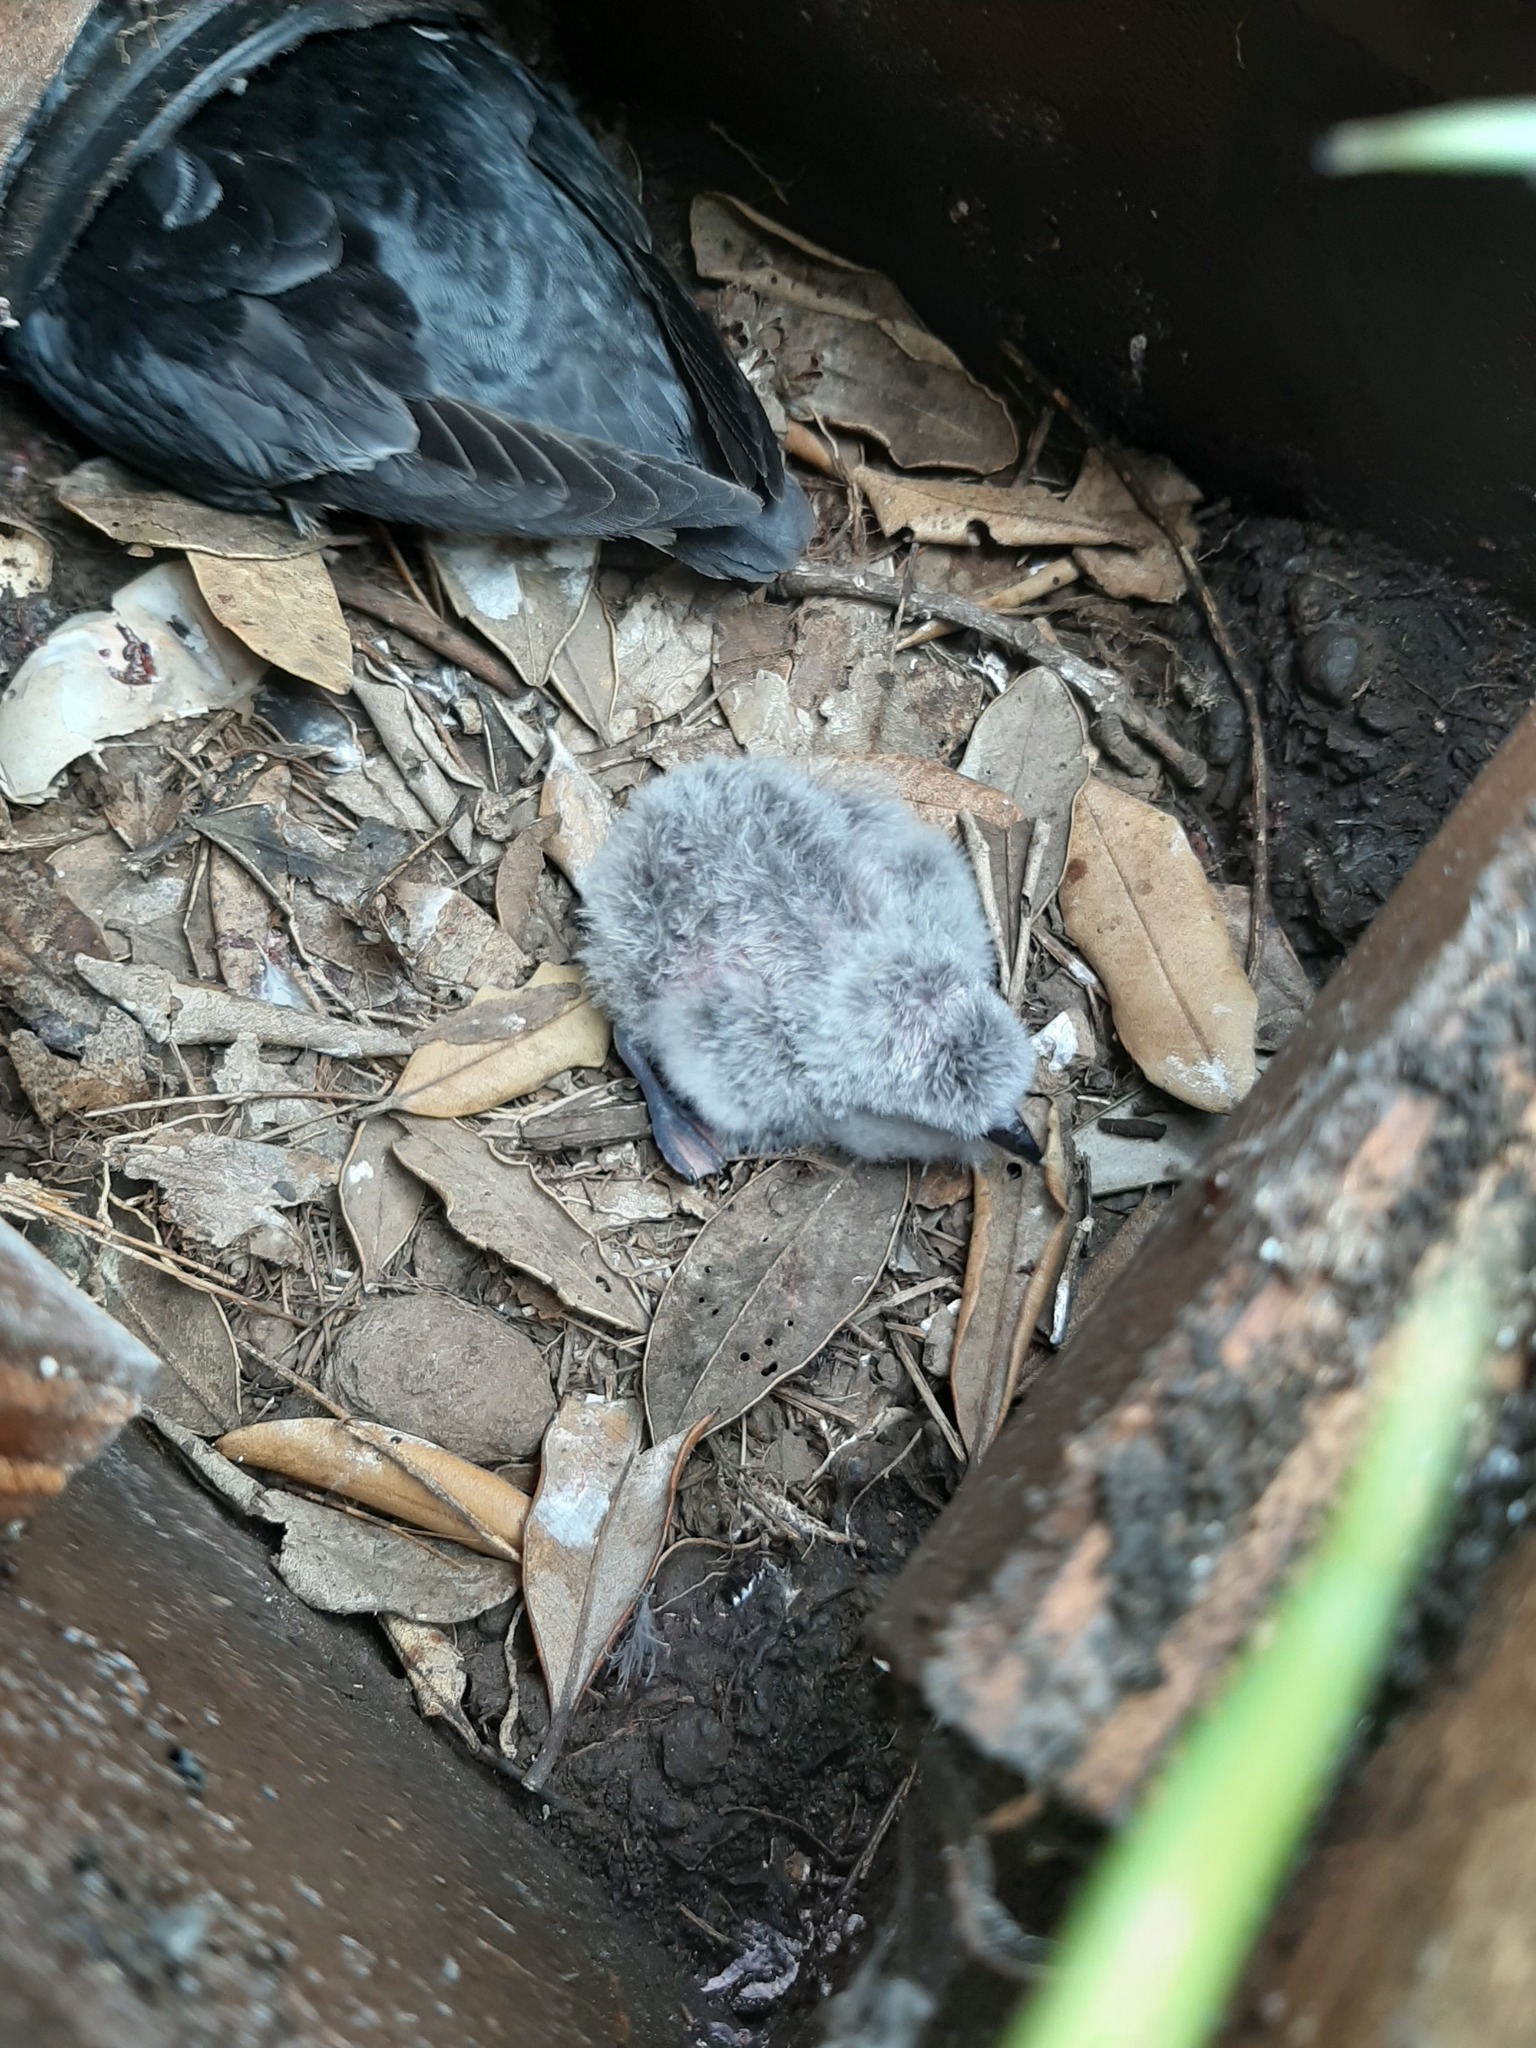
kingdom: Animalia
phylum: Chordata
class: Aves
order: Procellariiformes
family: Pelecanoididae
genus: Pelecanoides
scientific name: Pelecanoides urinatrix
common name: Common diving-petrel
